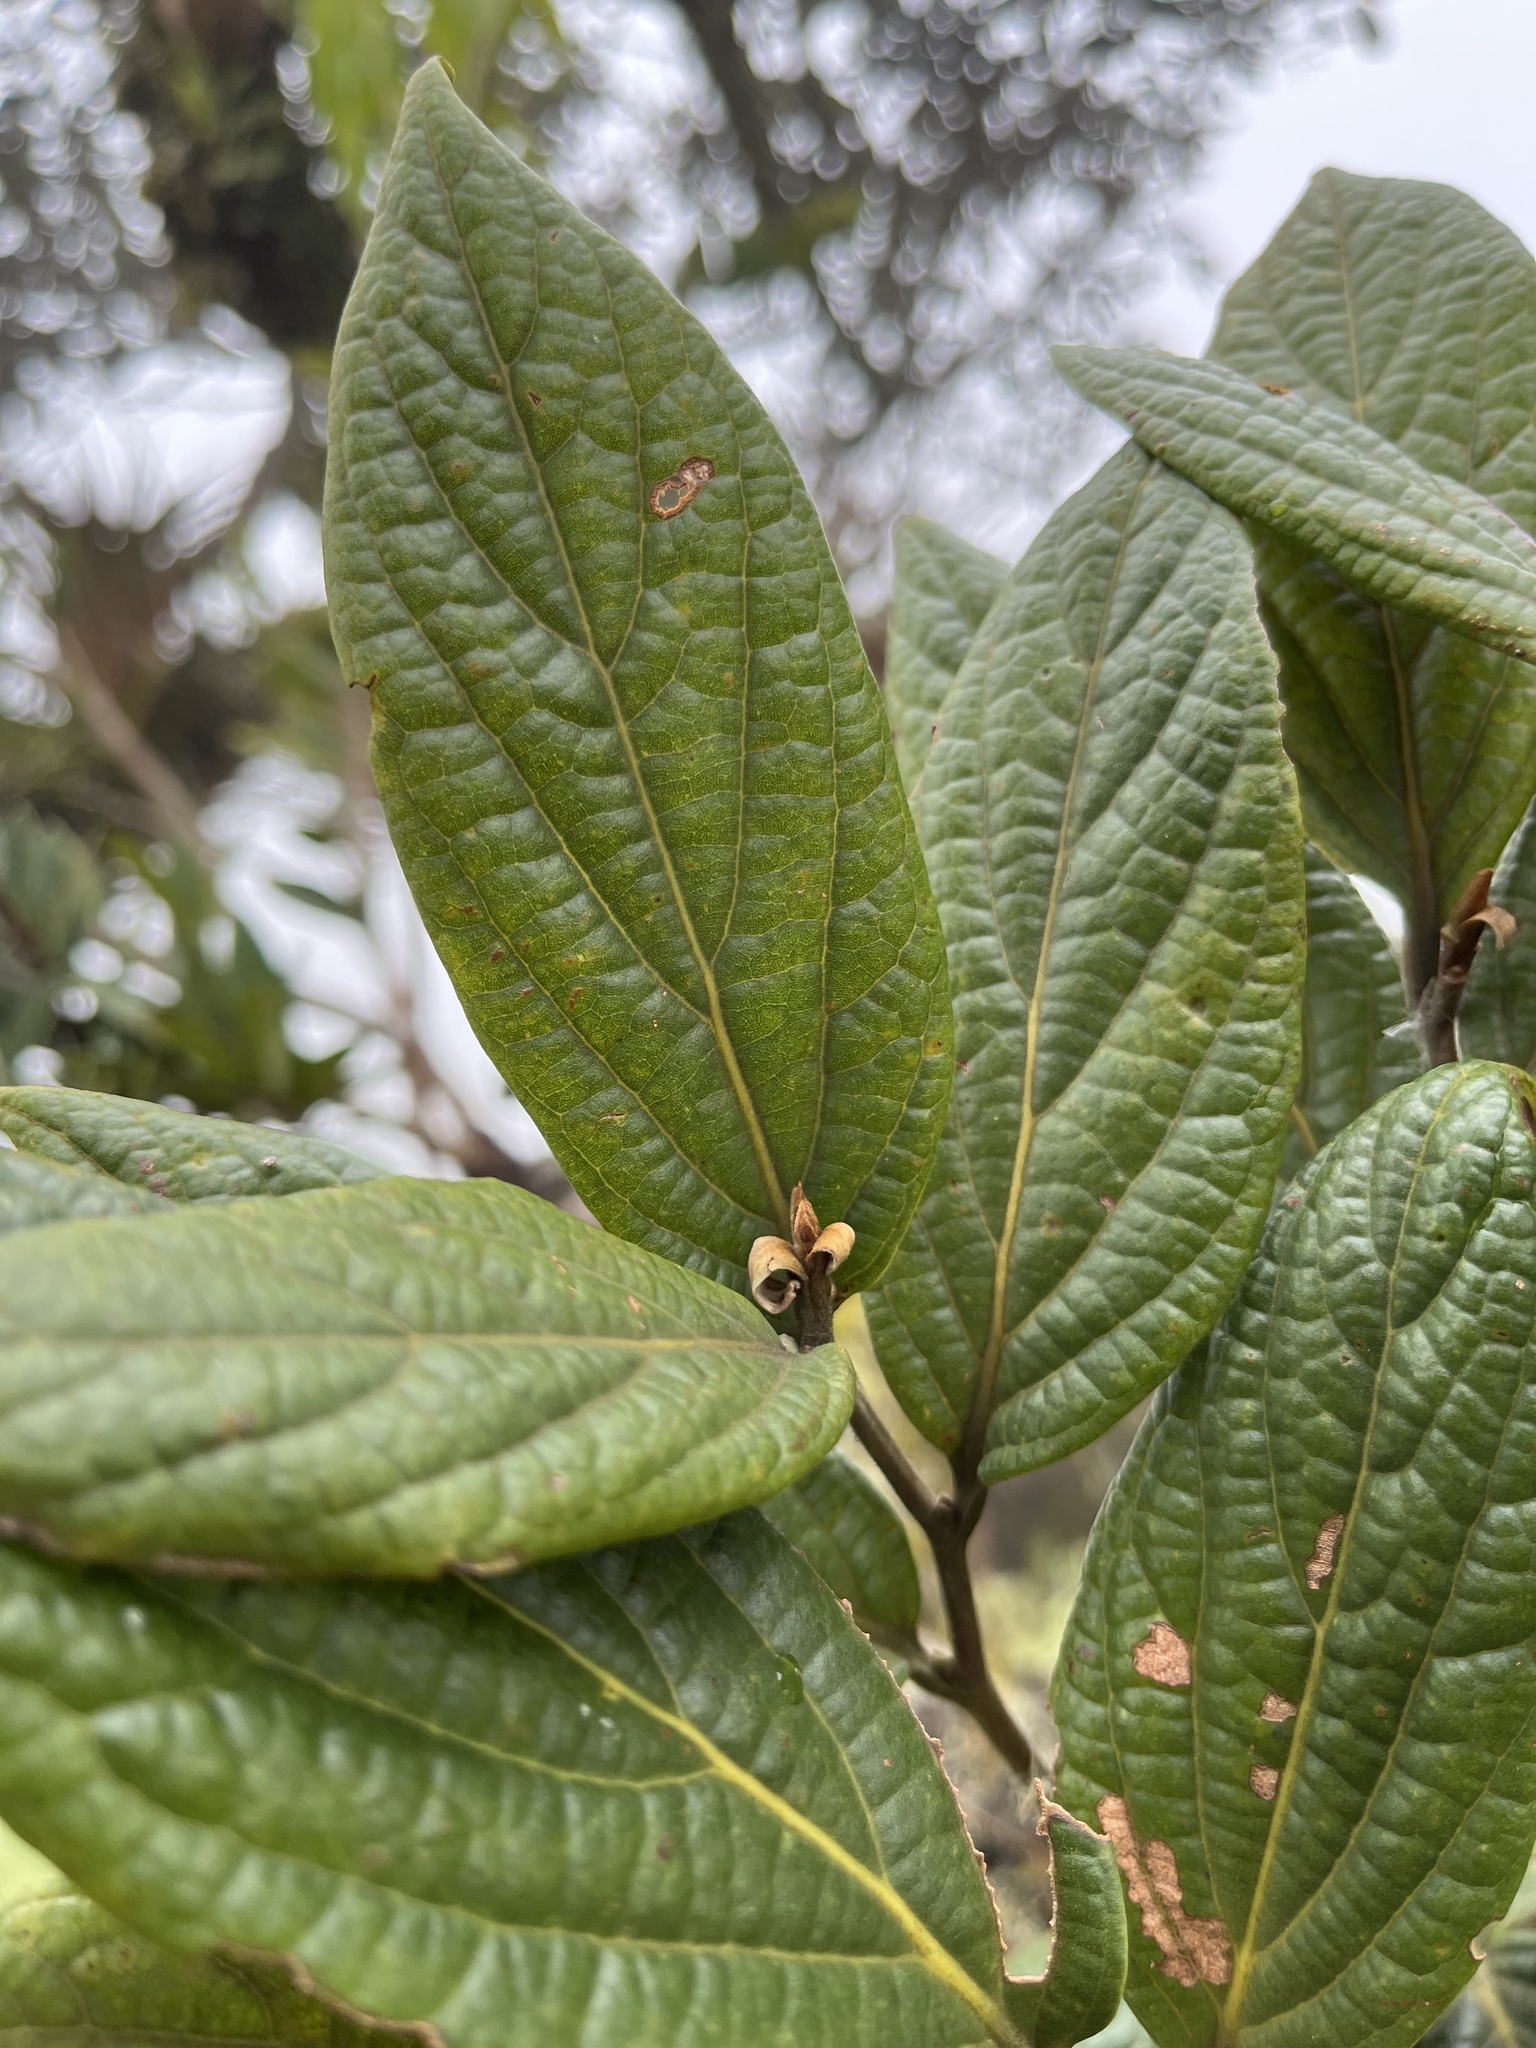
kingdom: Plantae
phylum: Tracheophyta
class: Magnoliopsida
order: Laurales
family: Lauraceae
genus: Ocotea
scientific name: Ocotea pedicellata
